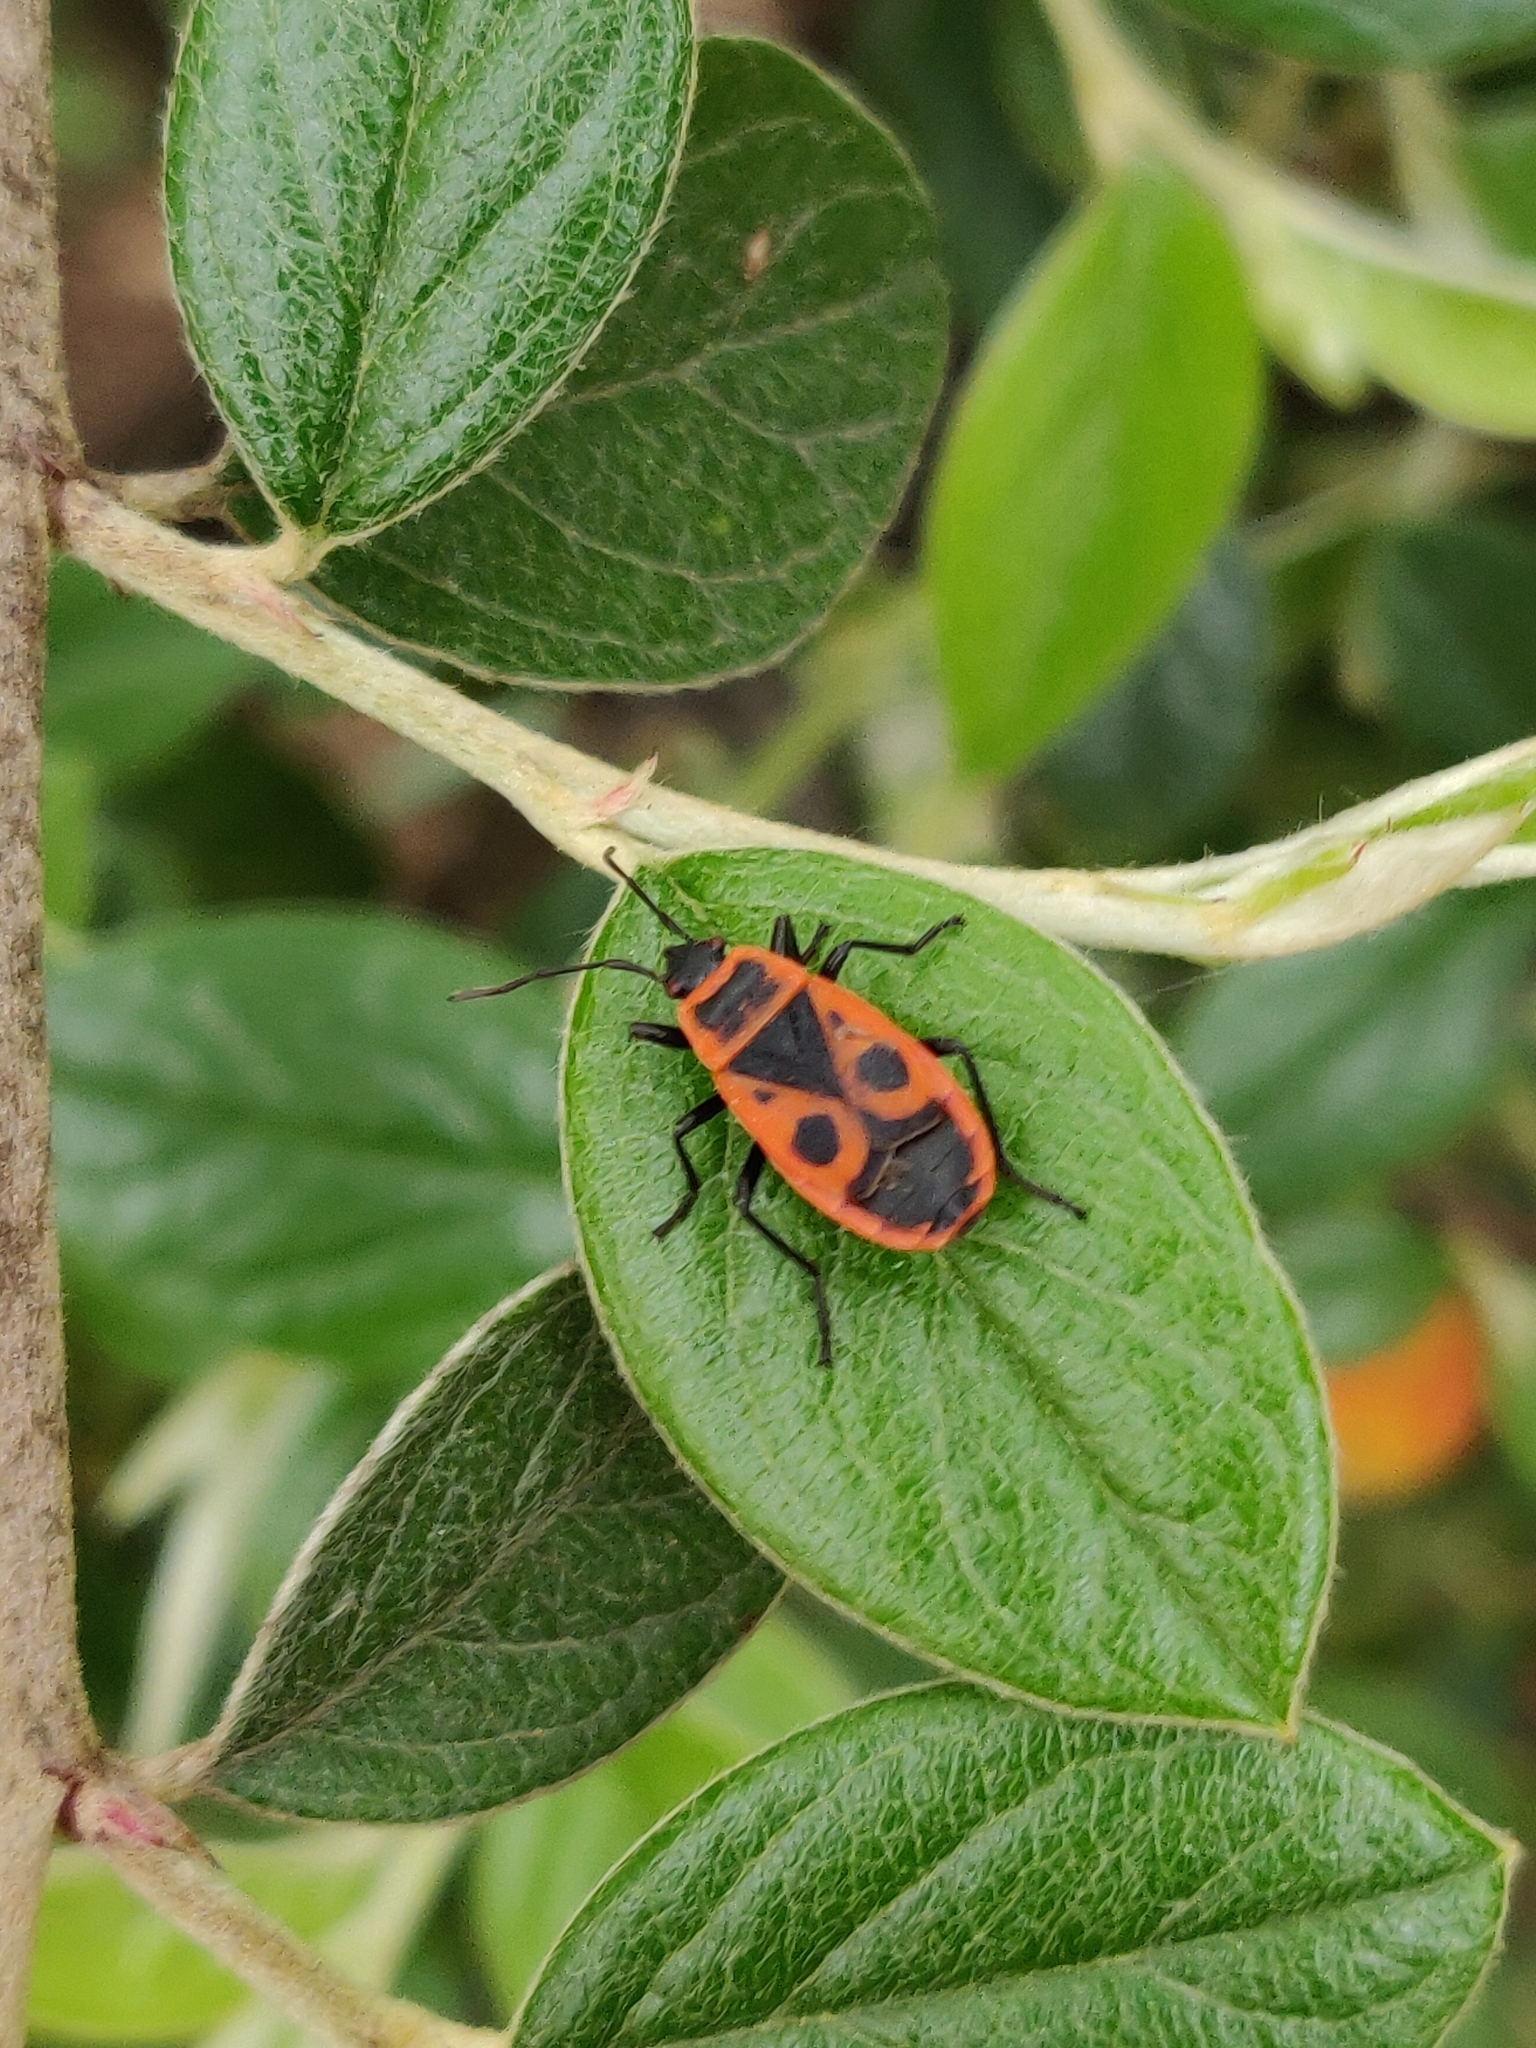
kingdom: Animalia
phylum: Arthropoda
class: Insecta
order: Hemiptera
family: Pyrrhocoridae
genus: Pyrrhocoris
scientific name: Pyrrhocoris apterus
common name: Firebug
